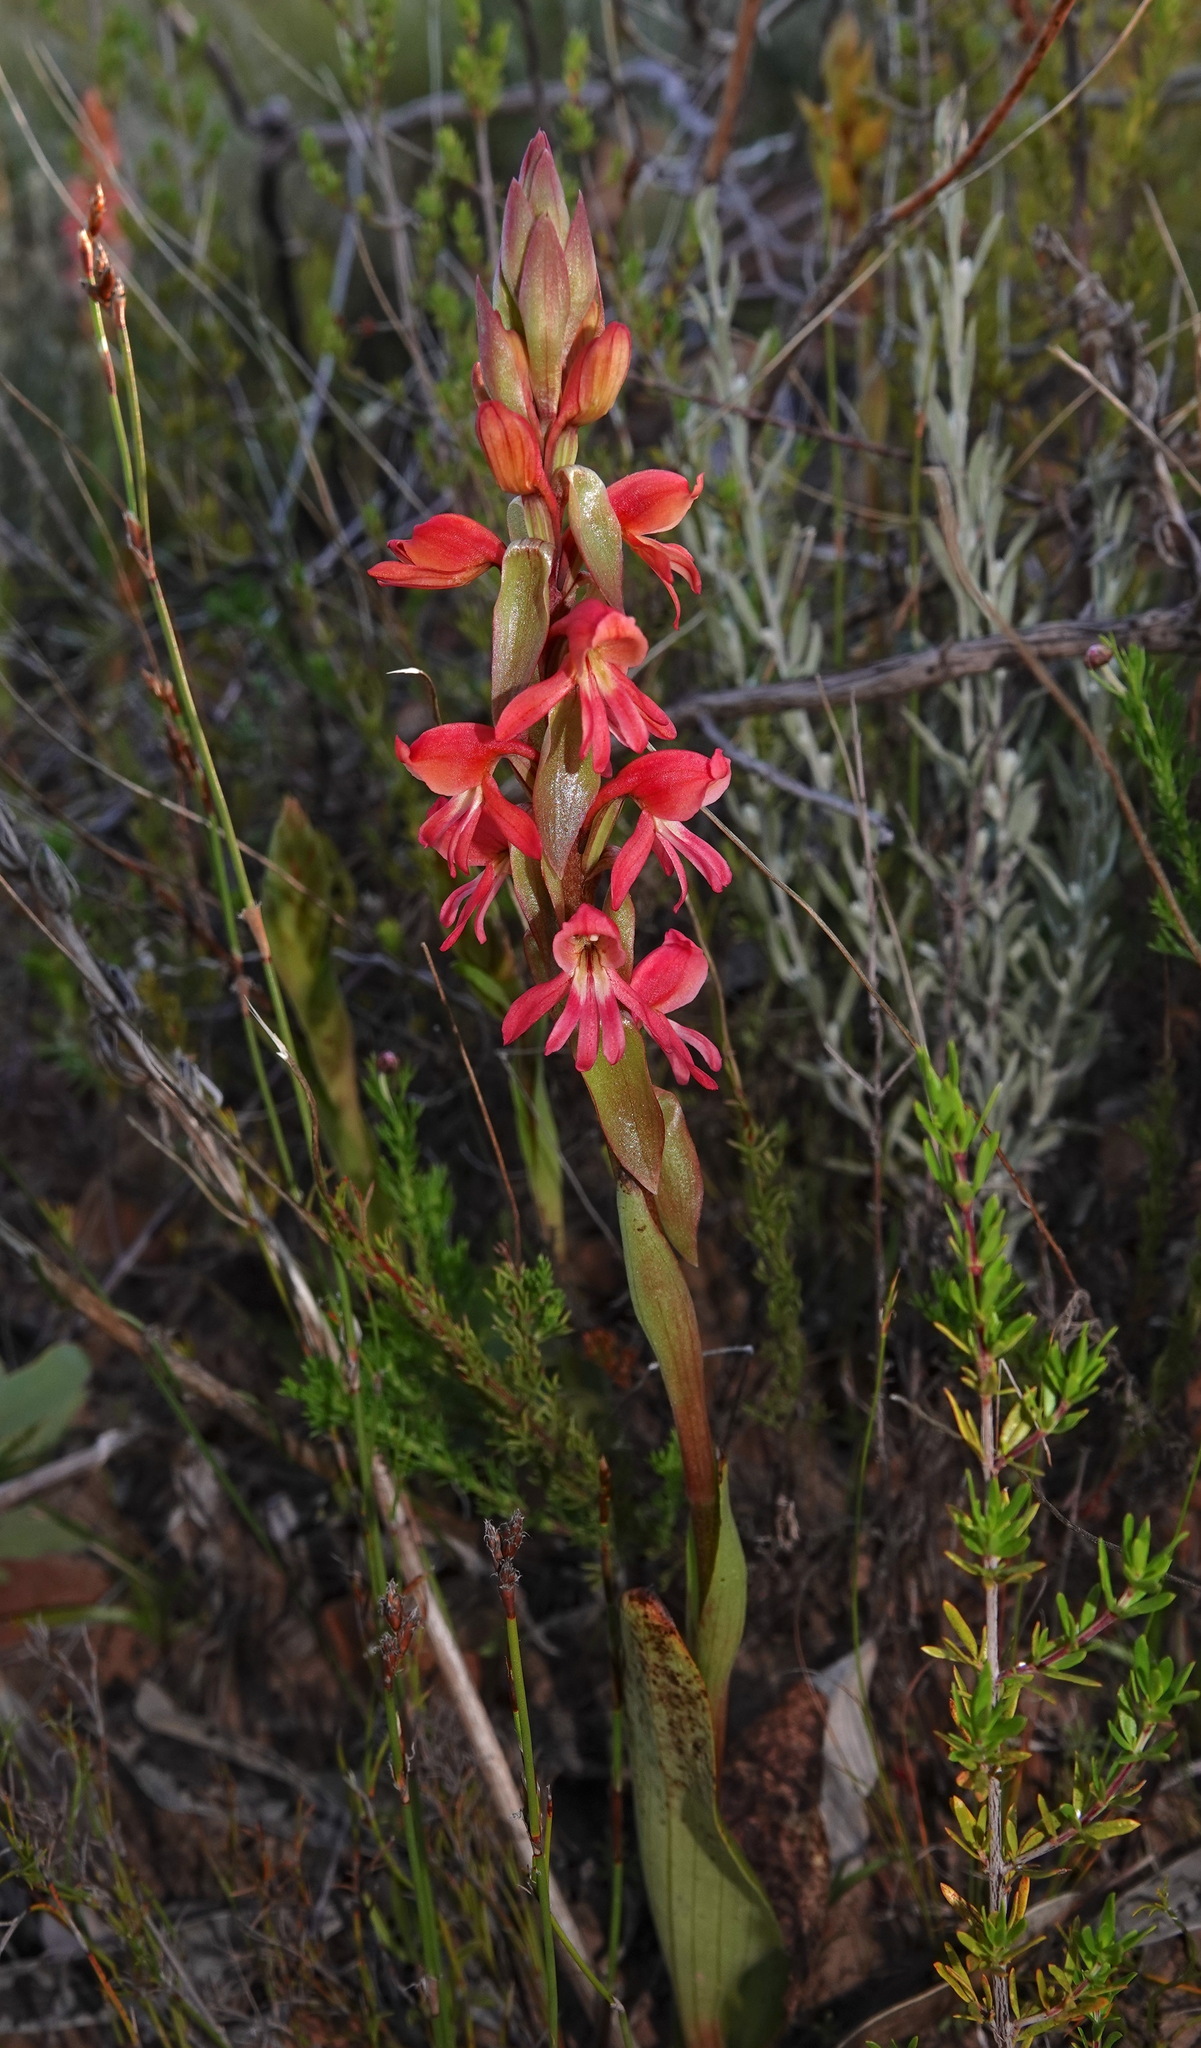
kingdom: Plantae
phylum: Tracheophyta
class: Liliopsida
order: Asparagales
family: Orchidaceae
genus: Satyrium
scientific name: Satyrium
